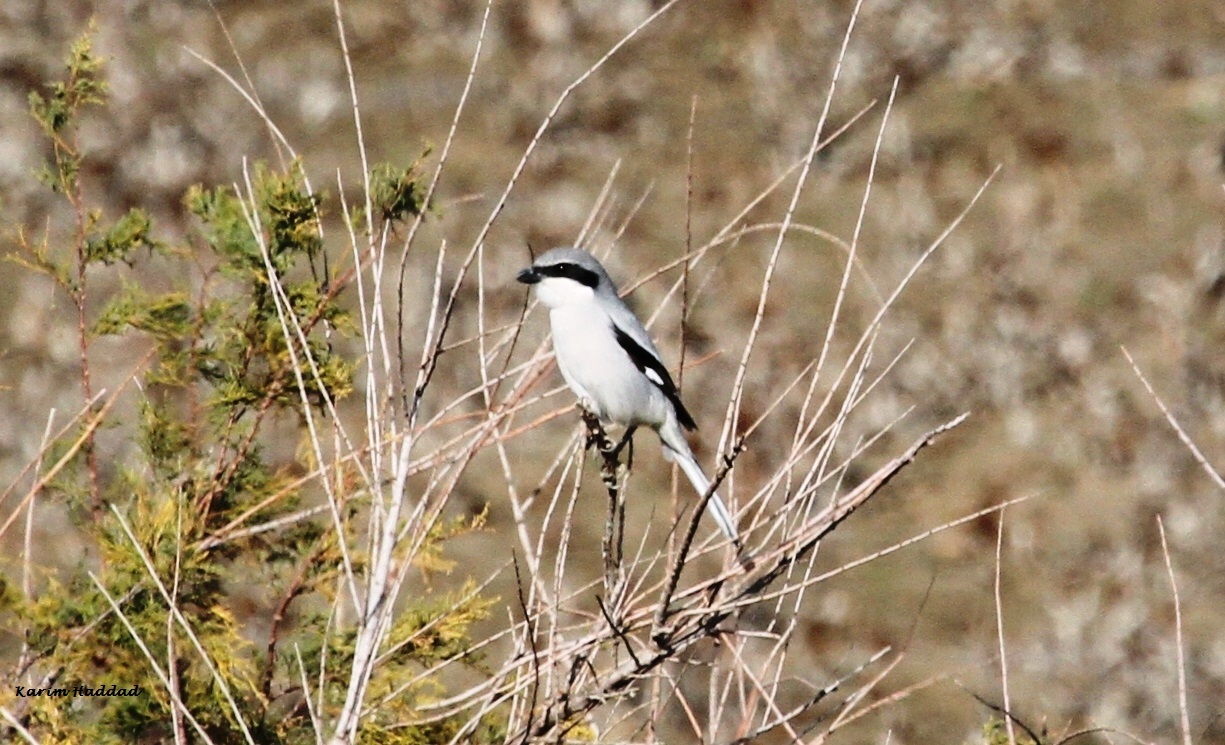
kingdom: Animalia
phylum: Chordata
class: Aves
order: Passeriformes
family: Laniidae
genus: Lanius
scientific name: Lanius excubitor
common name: Great grey shrike
